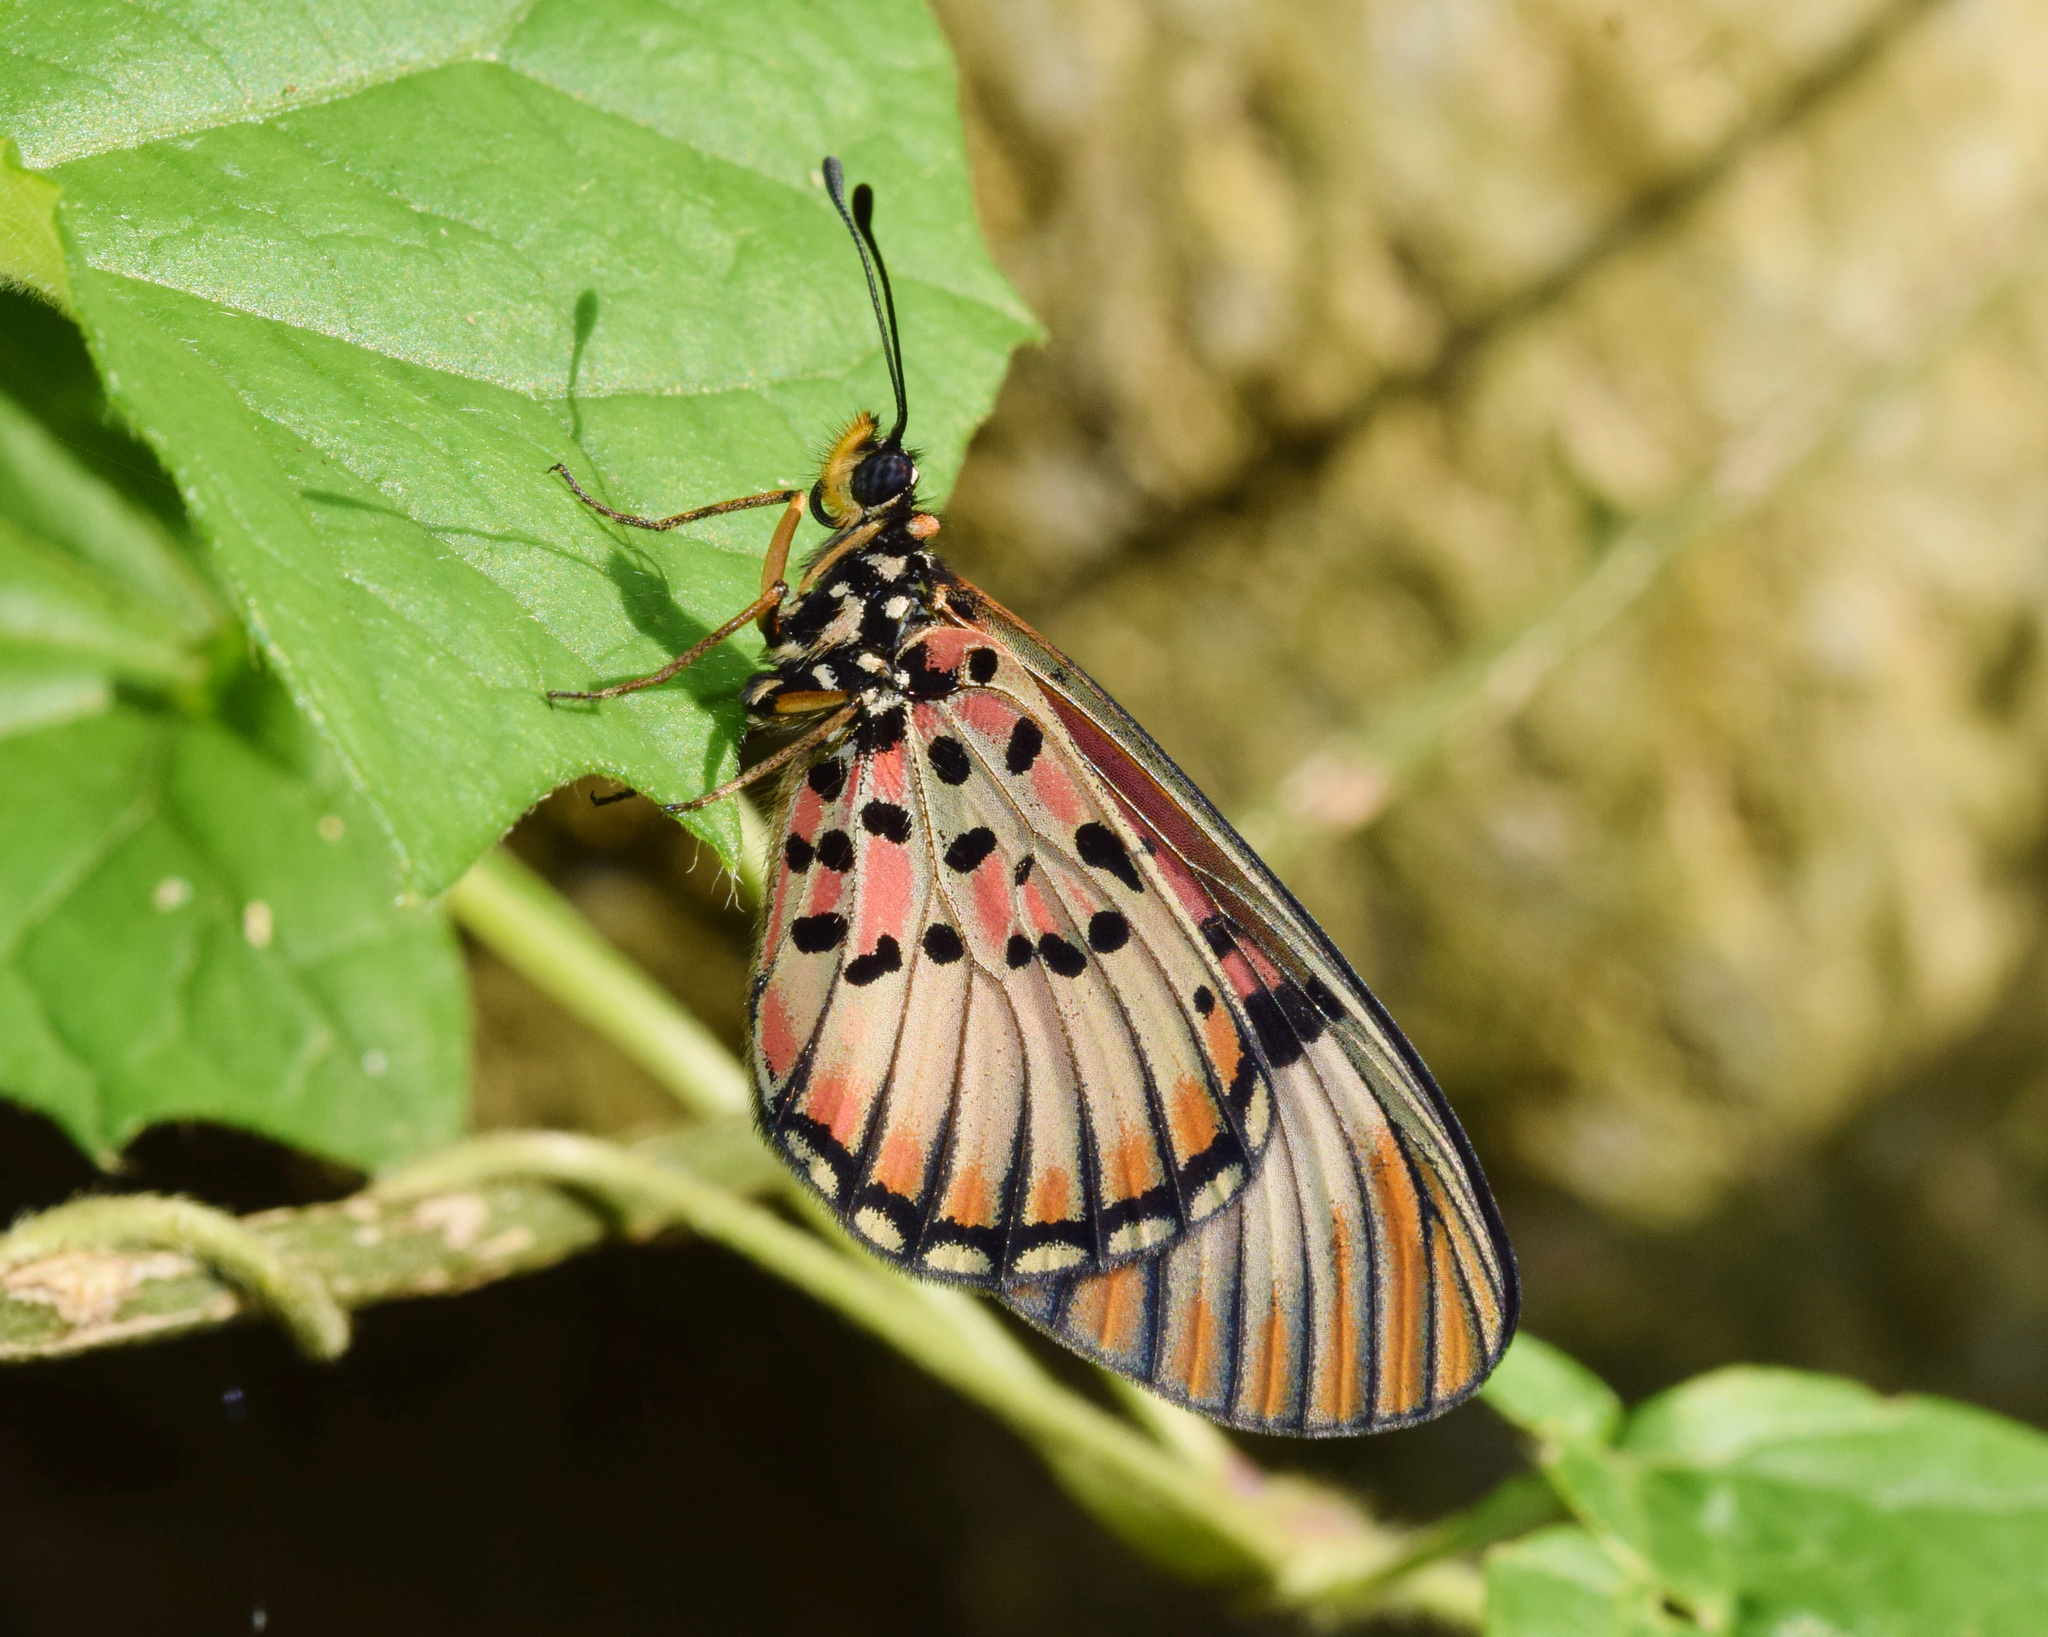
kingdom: Animalia
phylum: Arthropoda
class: Insecta
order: Lepidoptera
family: Nymphalidae
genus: Rubraea
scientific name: Rubraea
